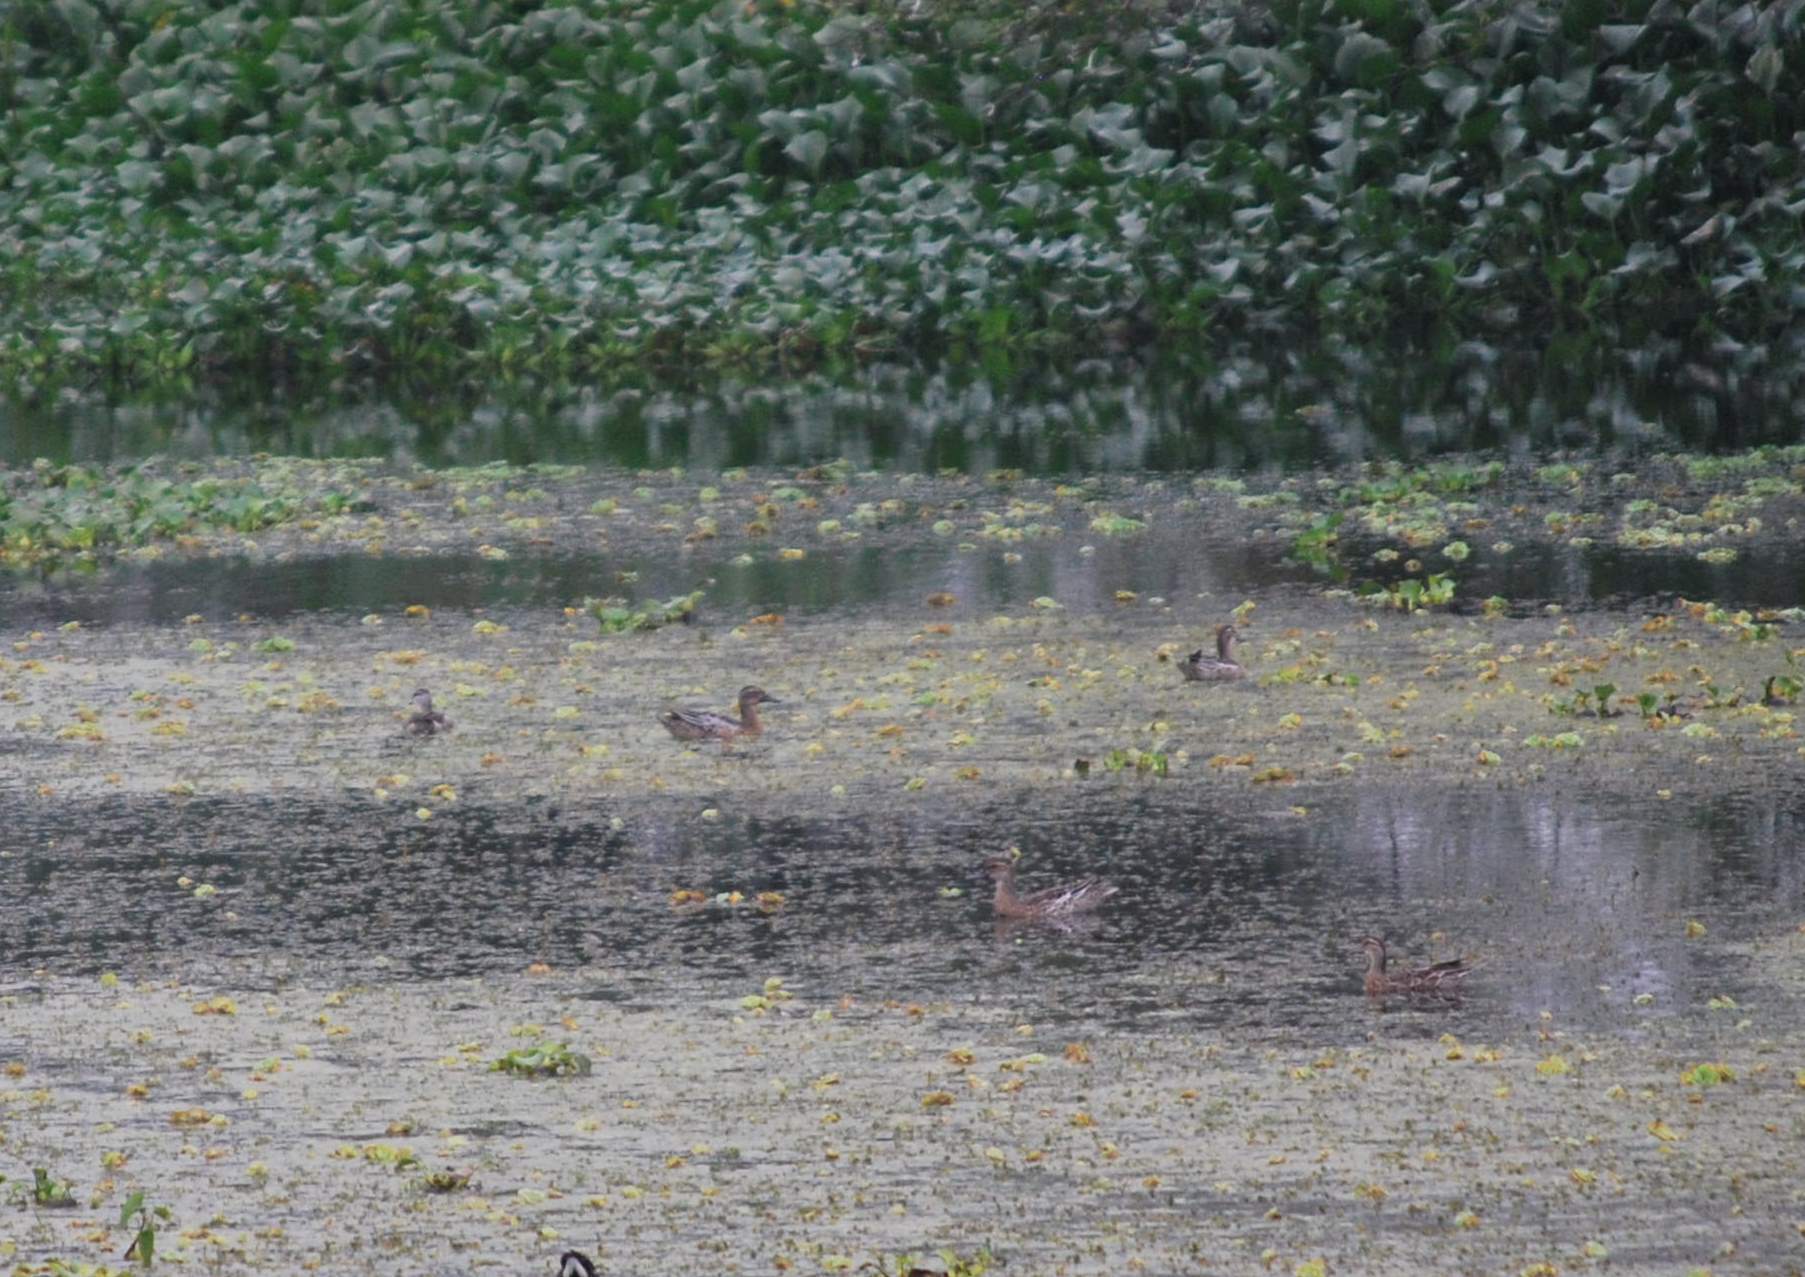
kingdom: Animalia
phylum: Chordata
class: Aves
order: Anseriformes
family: Anatidae
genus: Spatula
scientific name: Spatula querquedula
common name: Garganey
